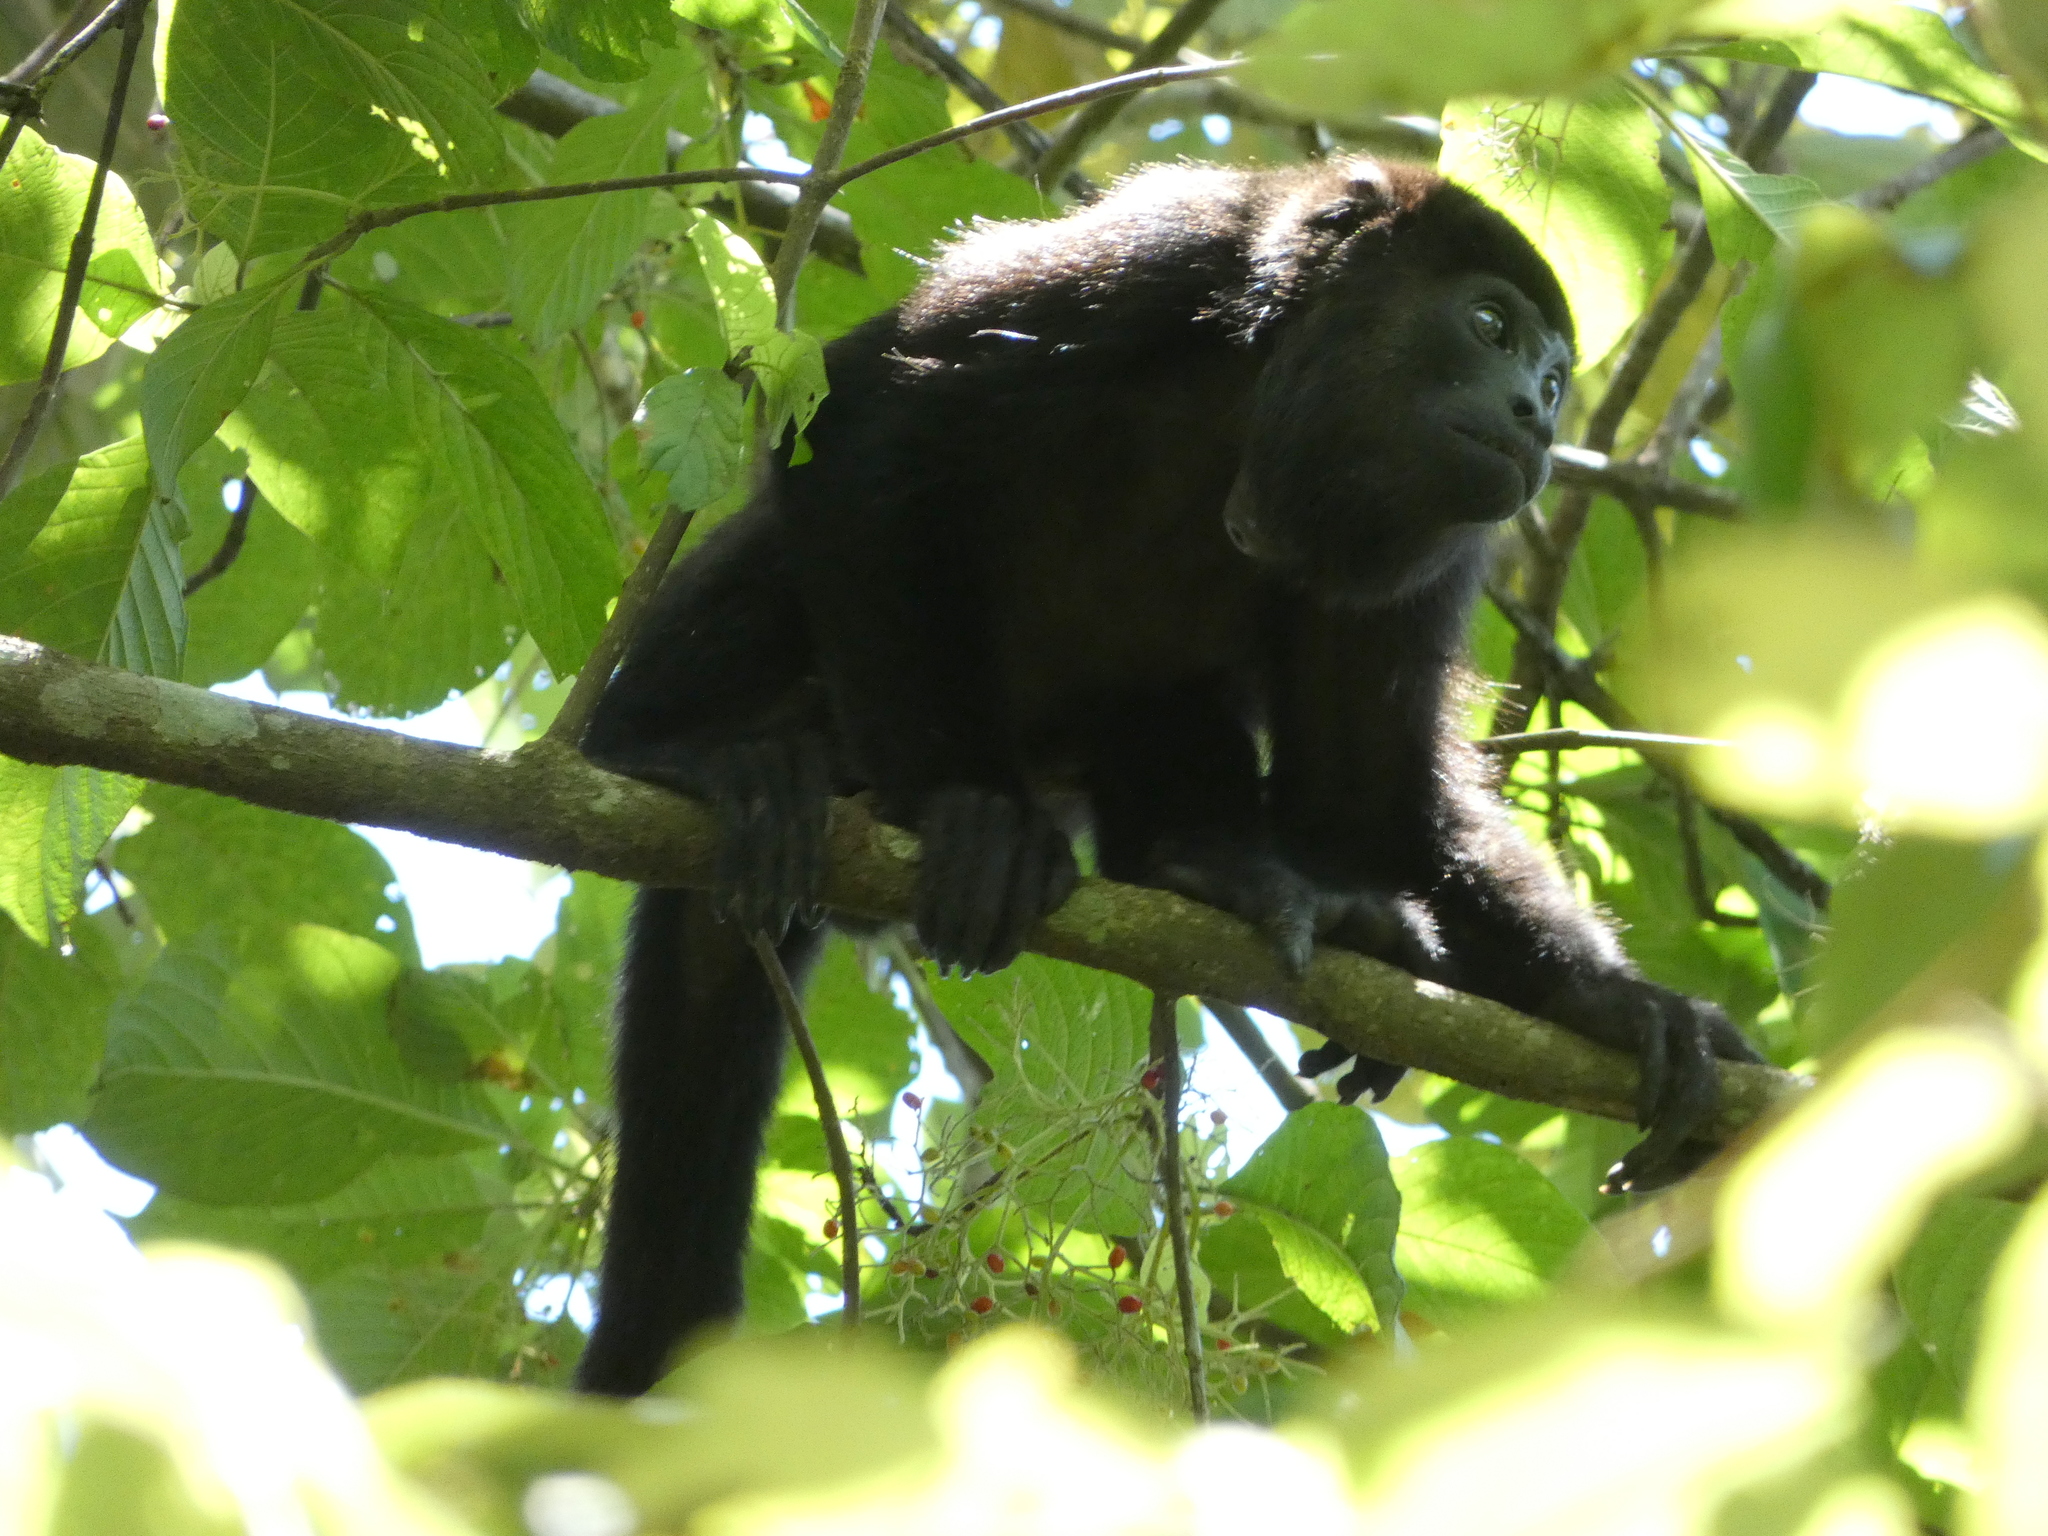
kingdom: Animalia
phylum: Chordata
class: Mammalia
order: Primates
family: Atelidae
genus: Alouatta
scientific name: Alouatta palliata
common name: Mantled howler
